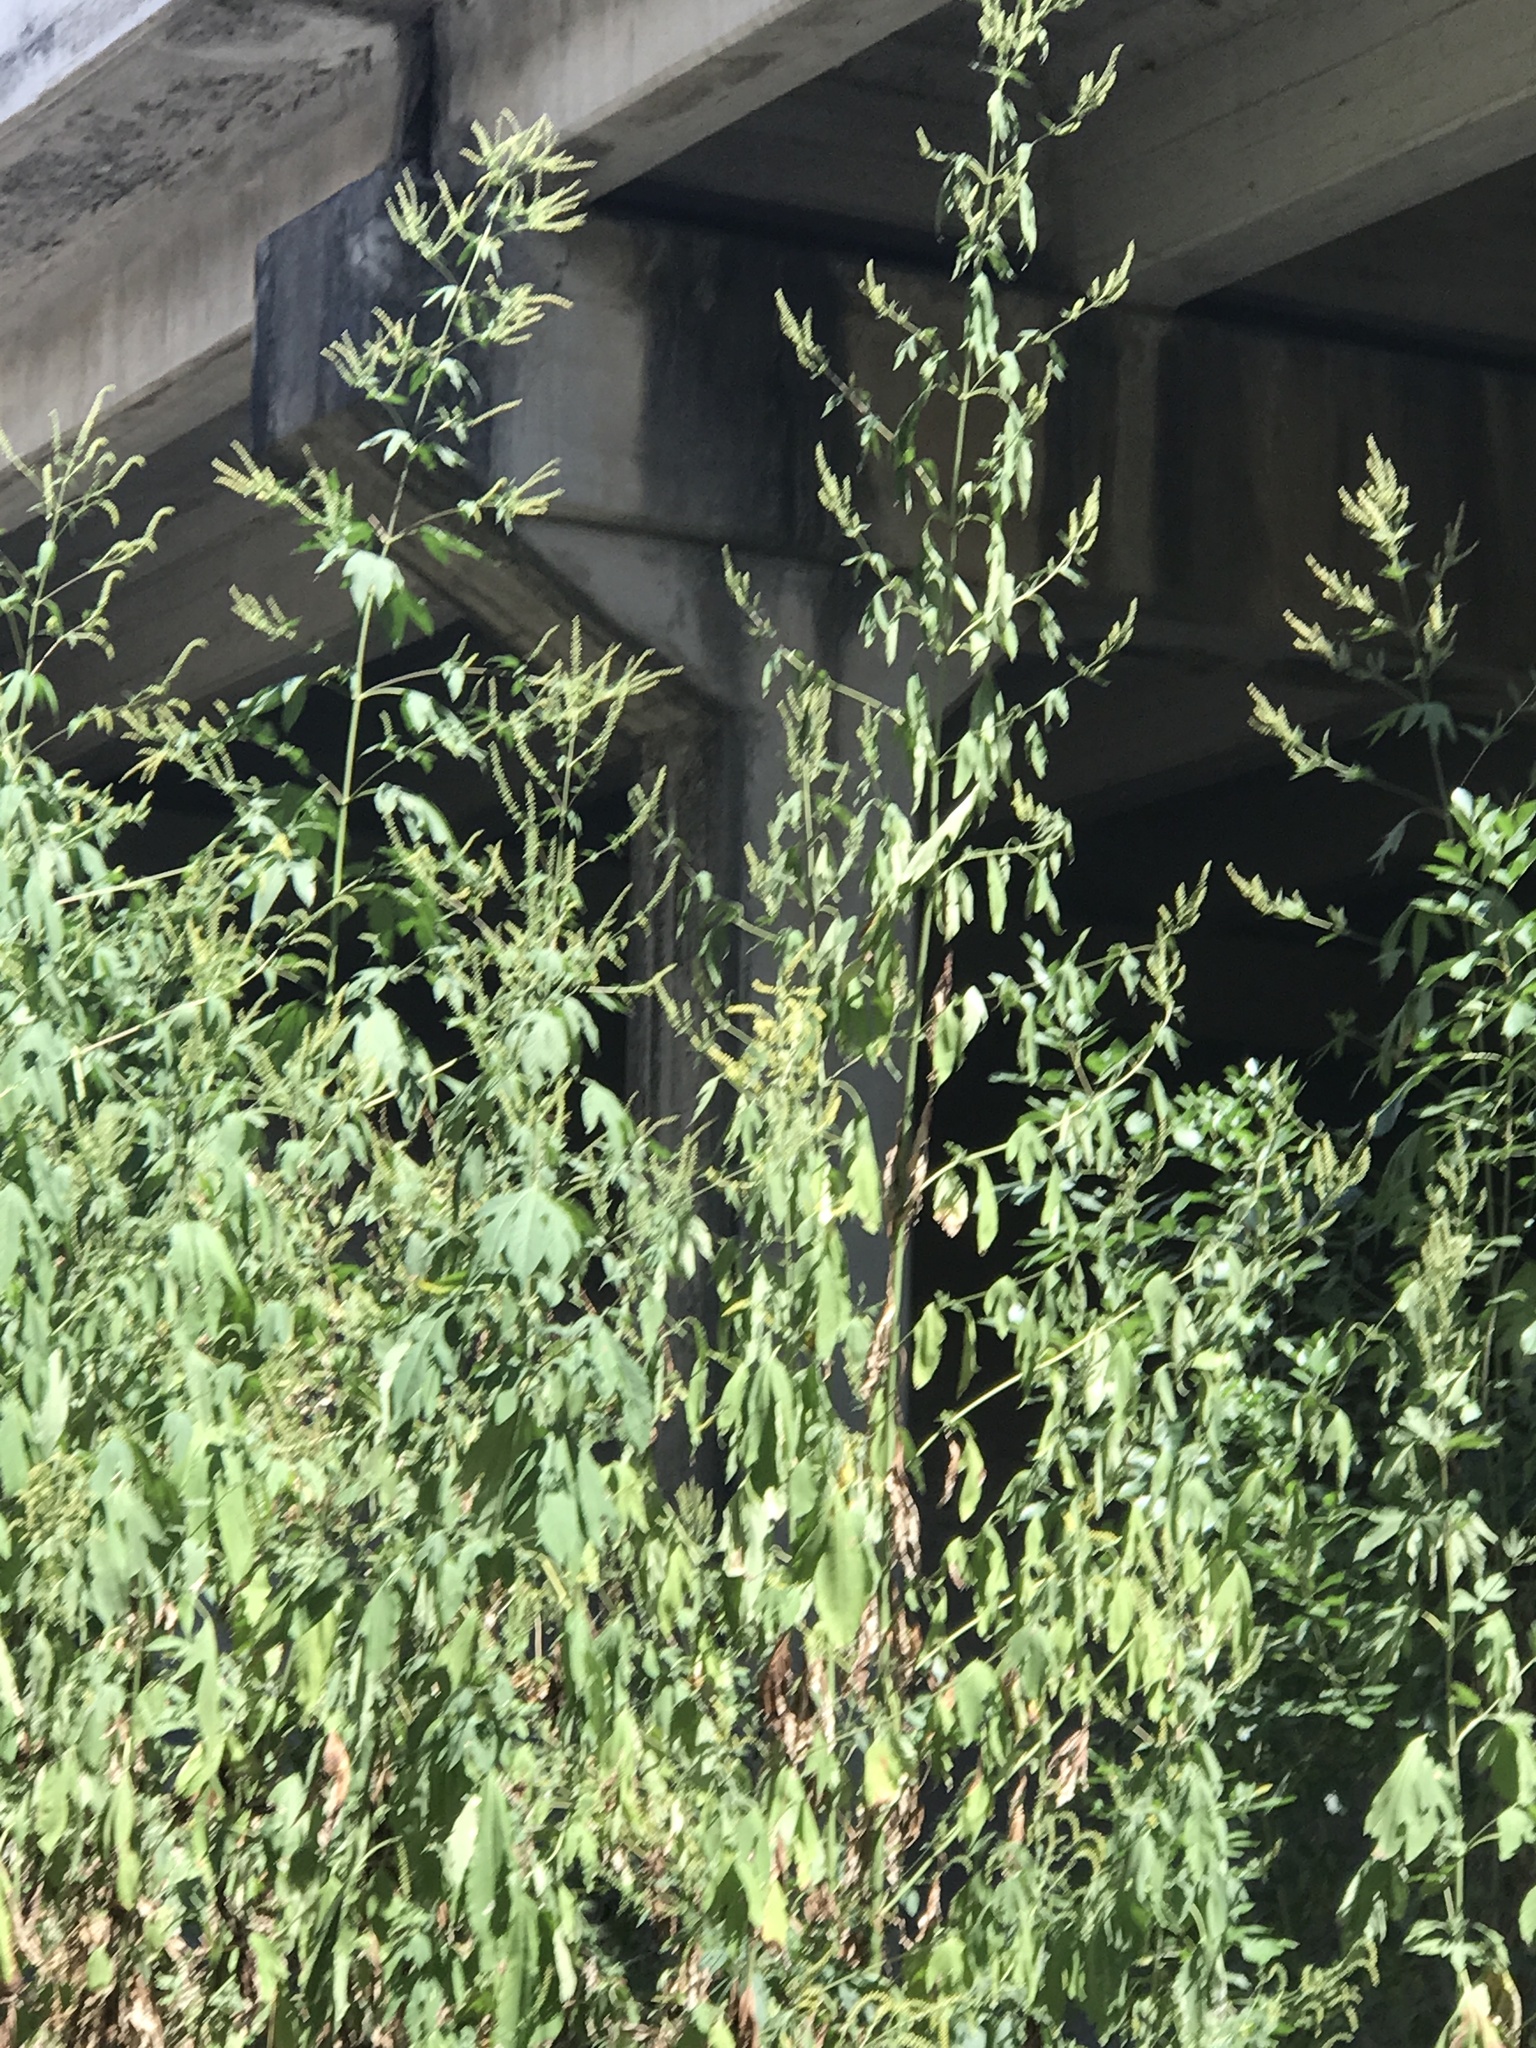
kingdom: Plantae
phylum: Tracheophyta
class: Magnoliopsida
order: Asterales
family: Asteraceae
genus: Ambrosia
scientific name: Ambrosia trifida
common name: Giant ragweed
